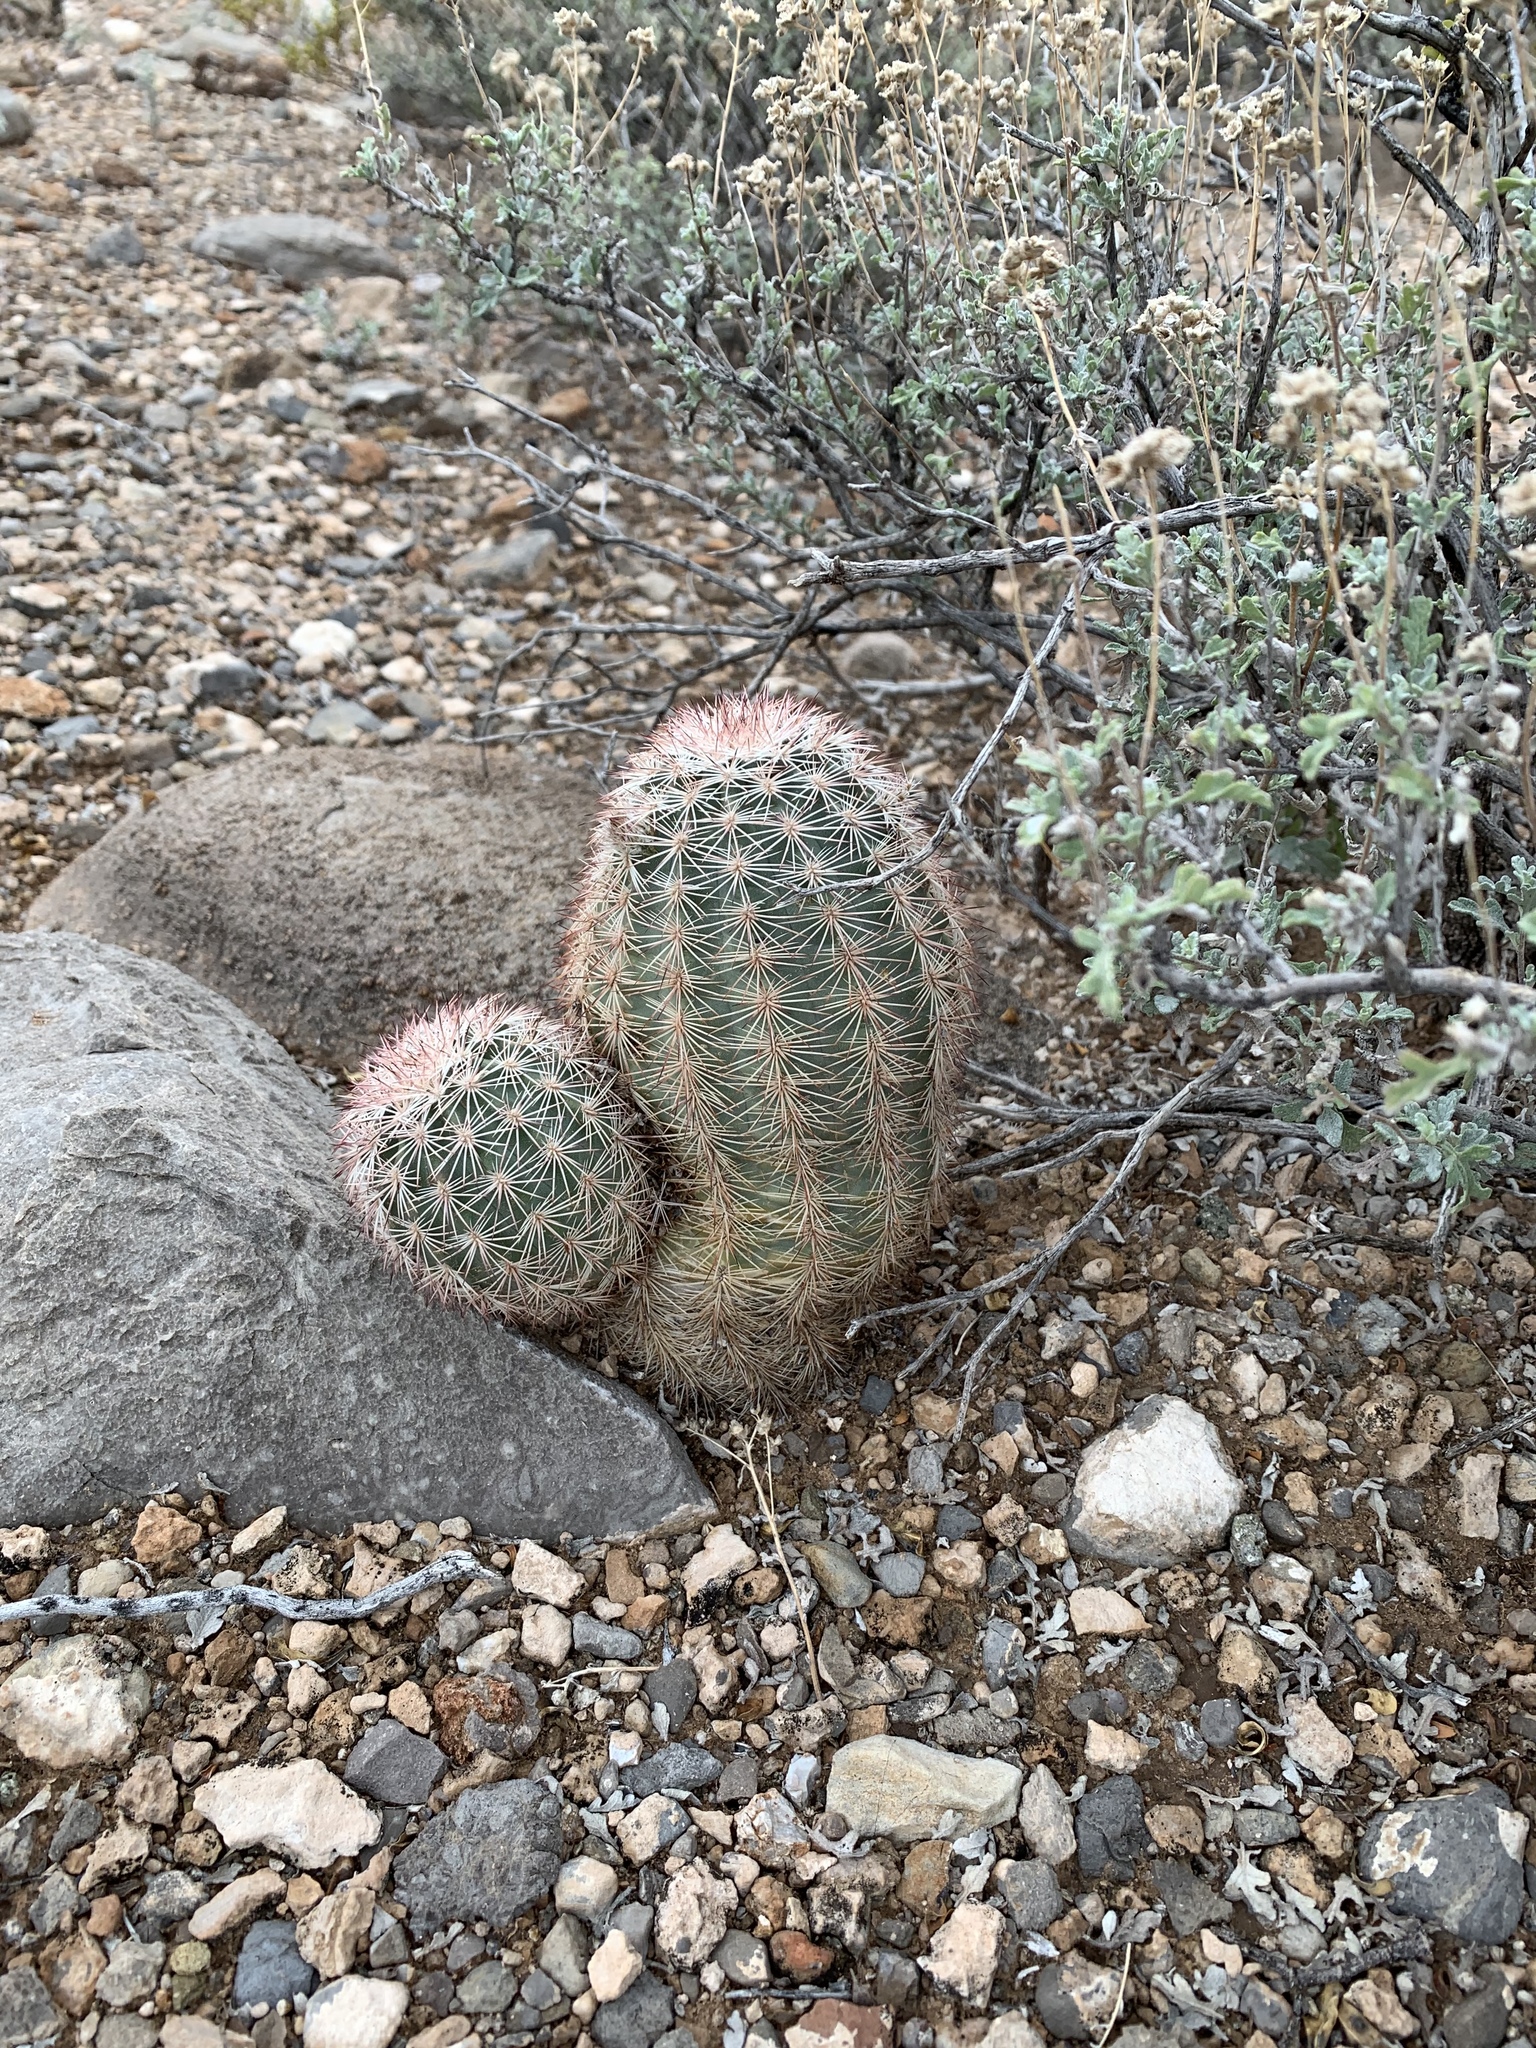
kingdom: Plantae
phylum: Tracheophyta
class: Magnoliopsida
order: Caryophyllales
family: Cactaceae
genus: Echinocereus
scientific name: Echinocereus dasyacanthus
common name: Spiny hedgehog cactus
